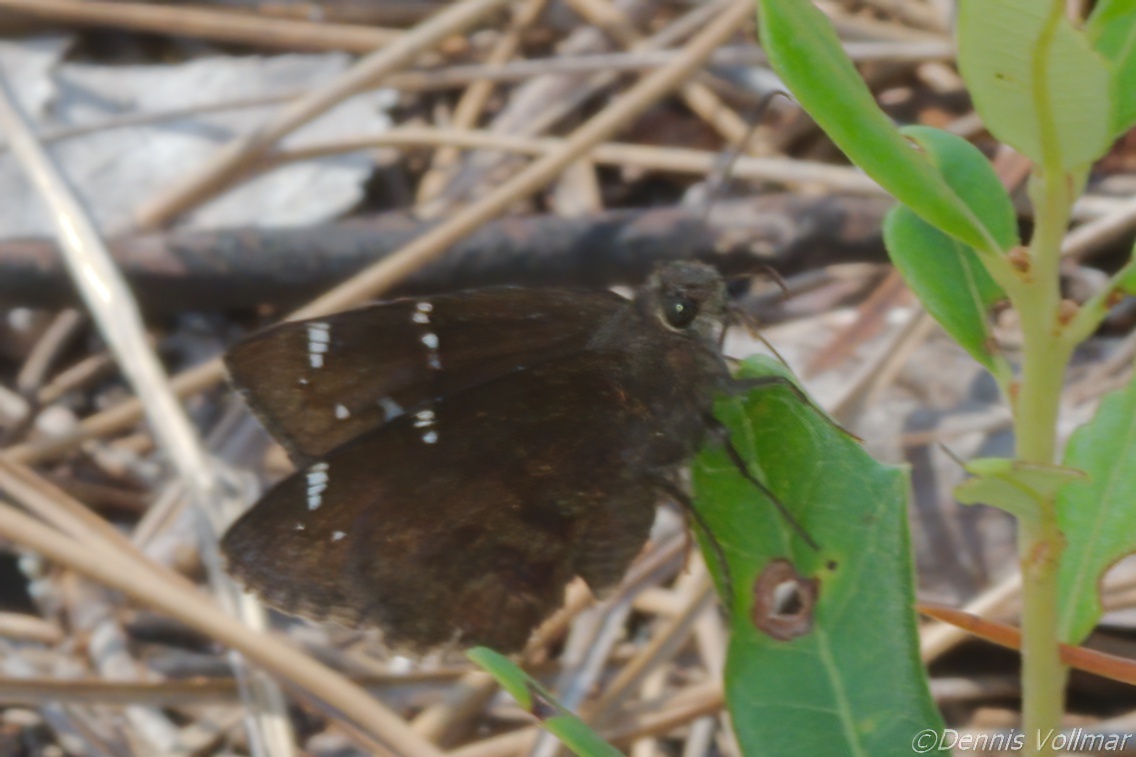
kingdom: Animalia
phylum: Arthropoda
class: Insecta
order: Lepidoptera
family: Hesperiidae
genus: Thorybes
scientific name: Thorybes pylades
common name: Northern cloudywing
